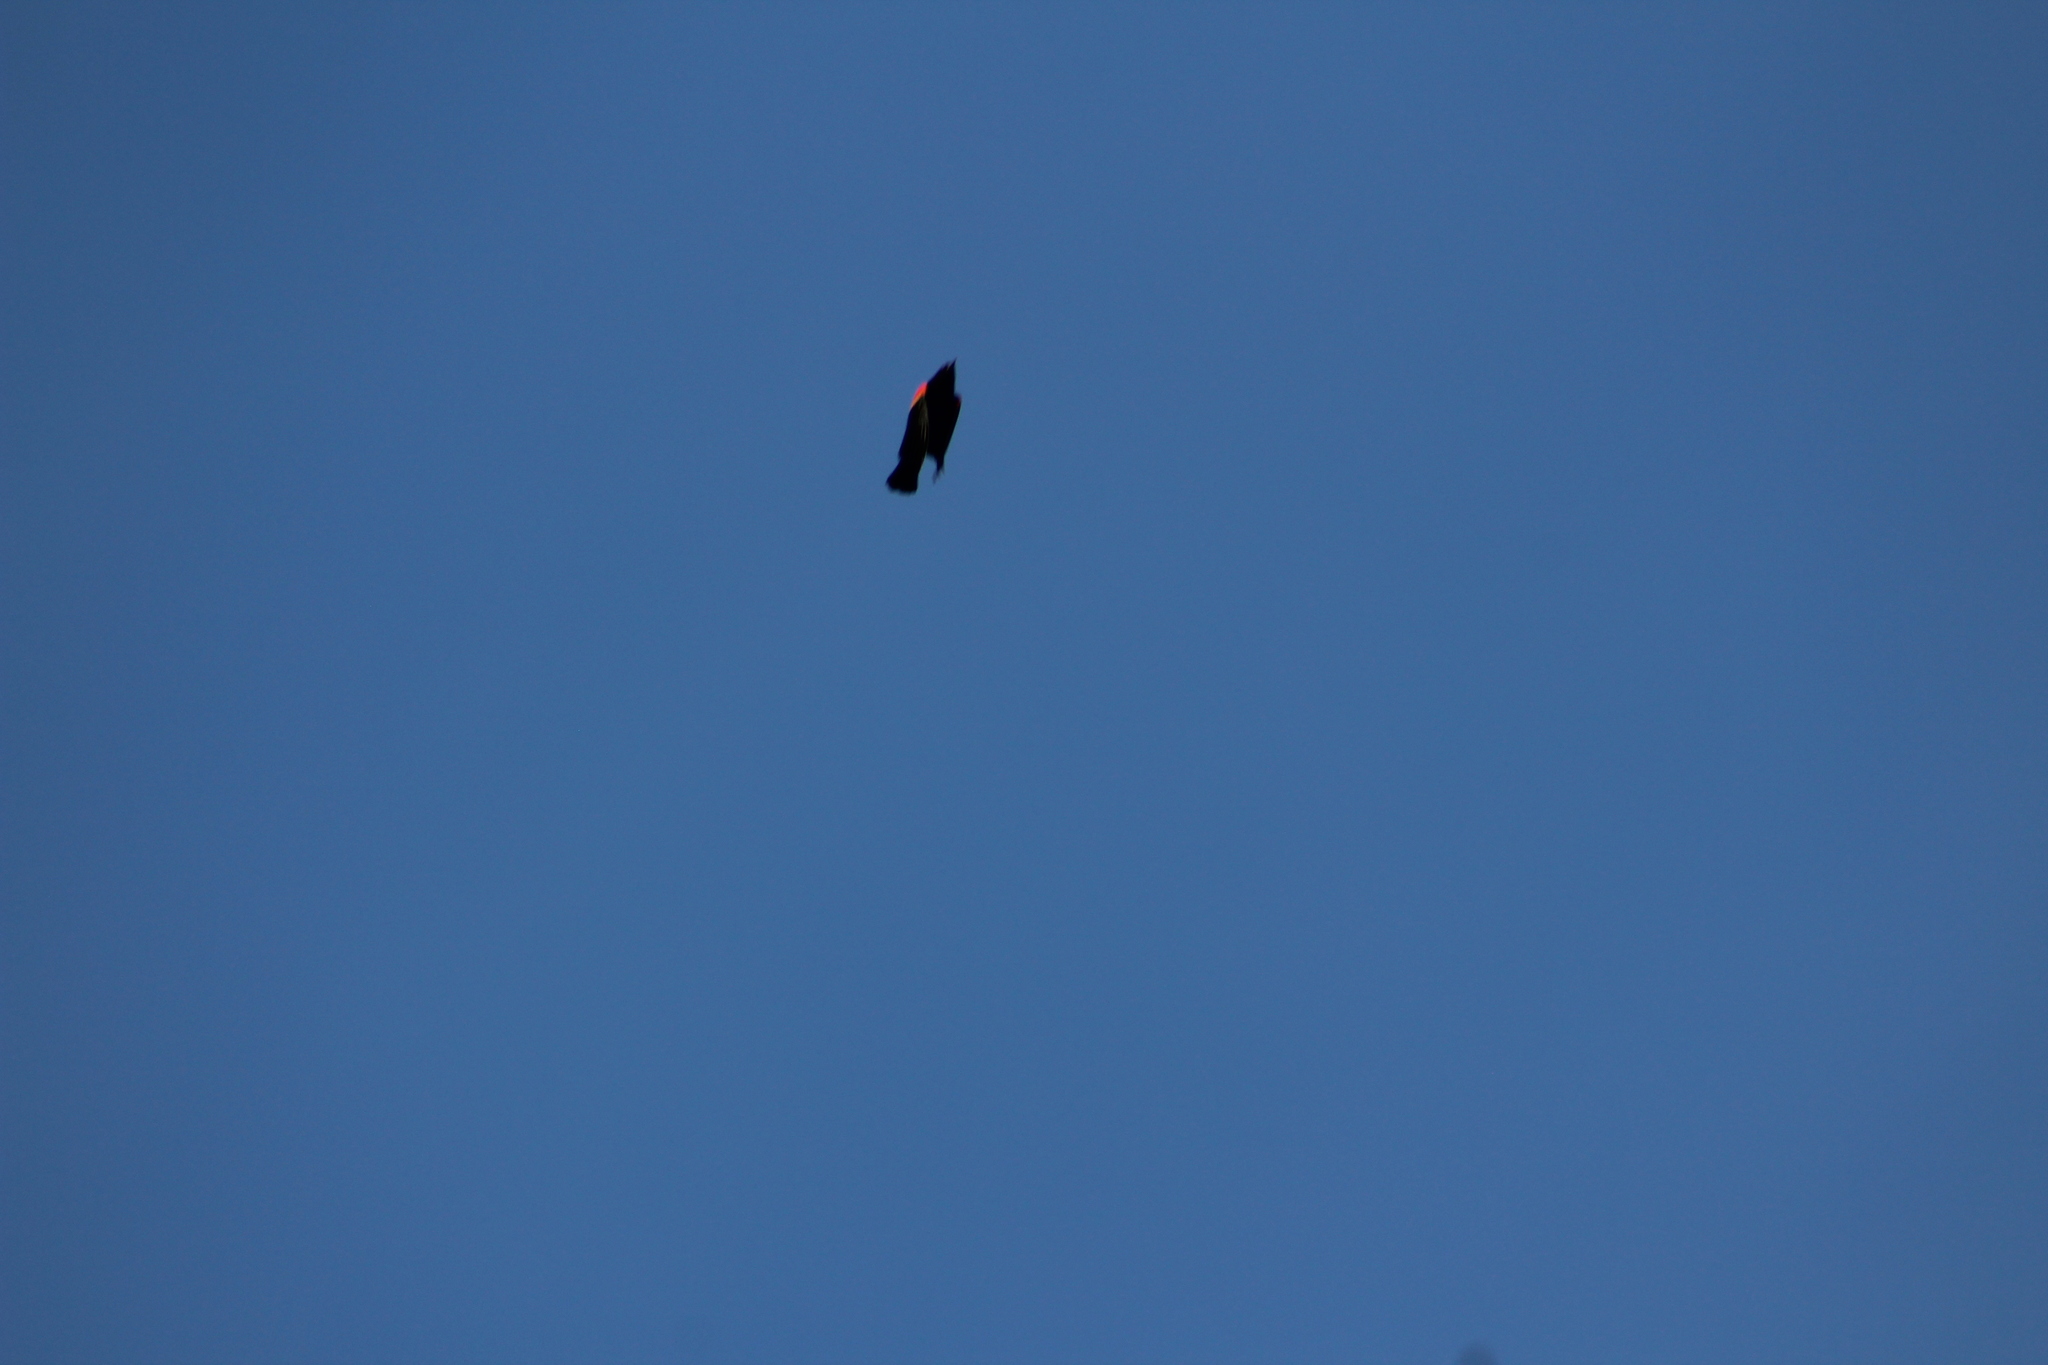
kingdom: Animalia
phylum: Chordata
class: Aves
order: Passeriformes
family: Icteridae
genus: Agelaius
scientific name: Agelaius phoeniceus
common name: Red-winged blackbird
